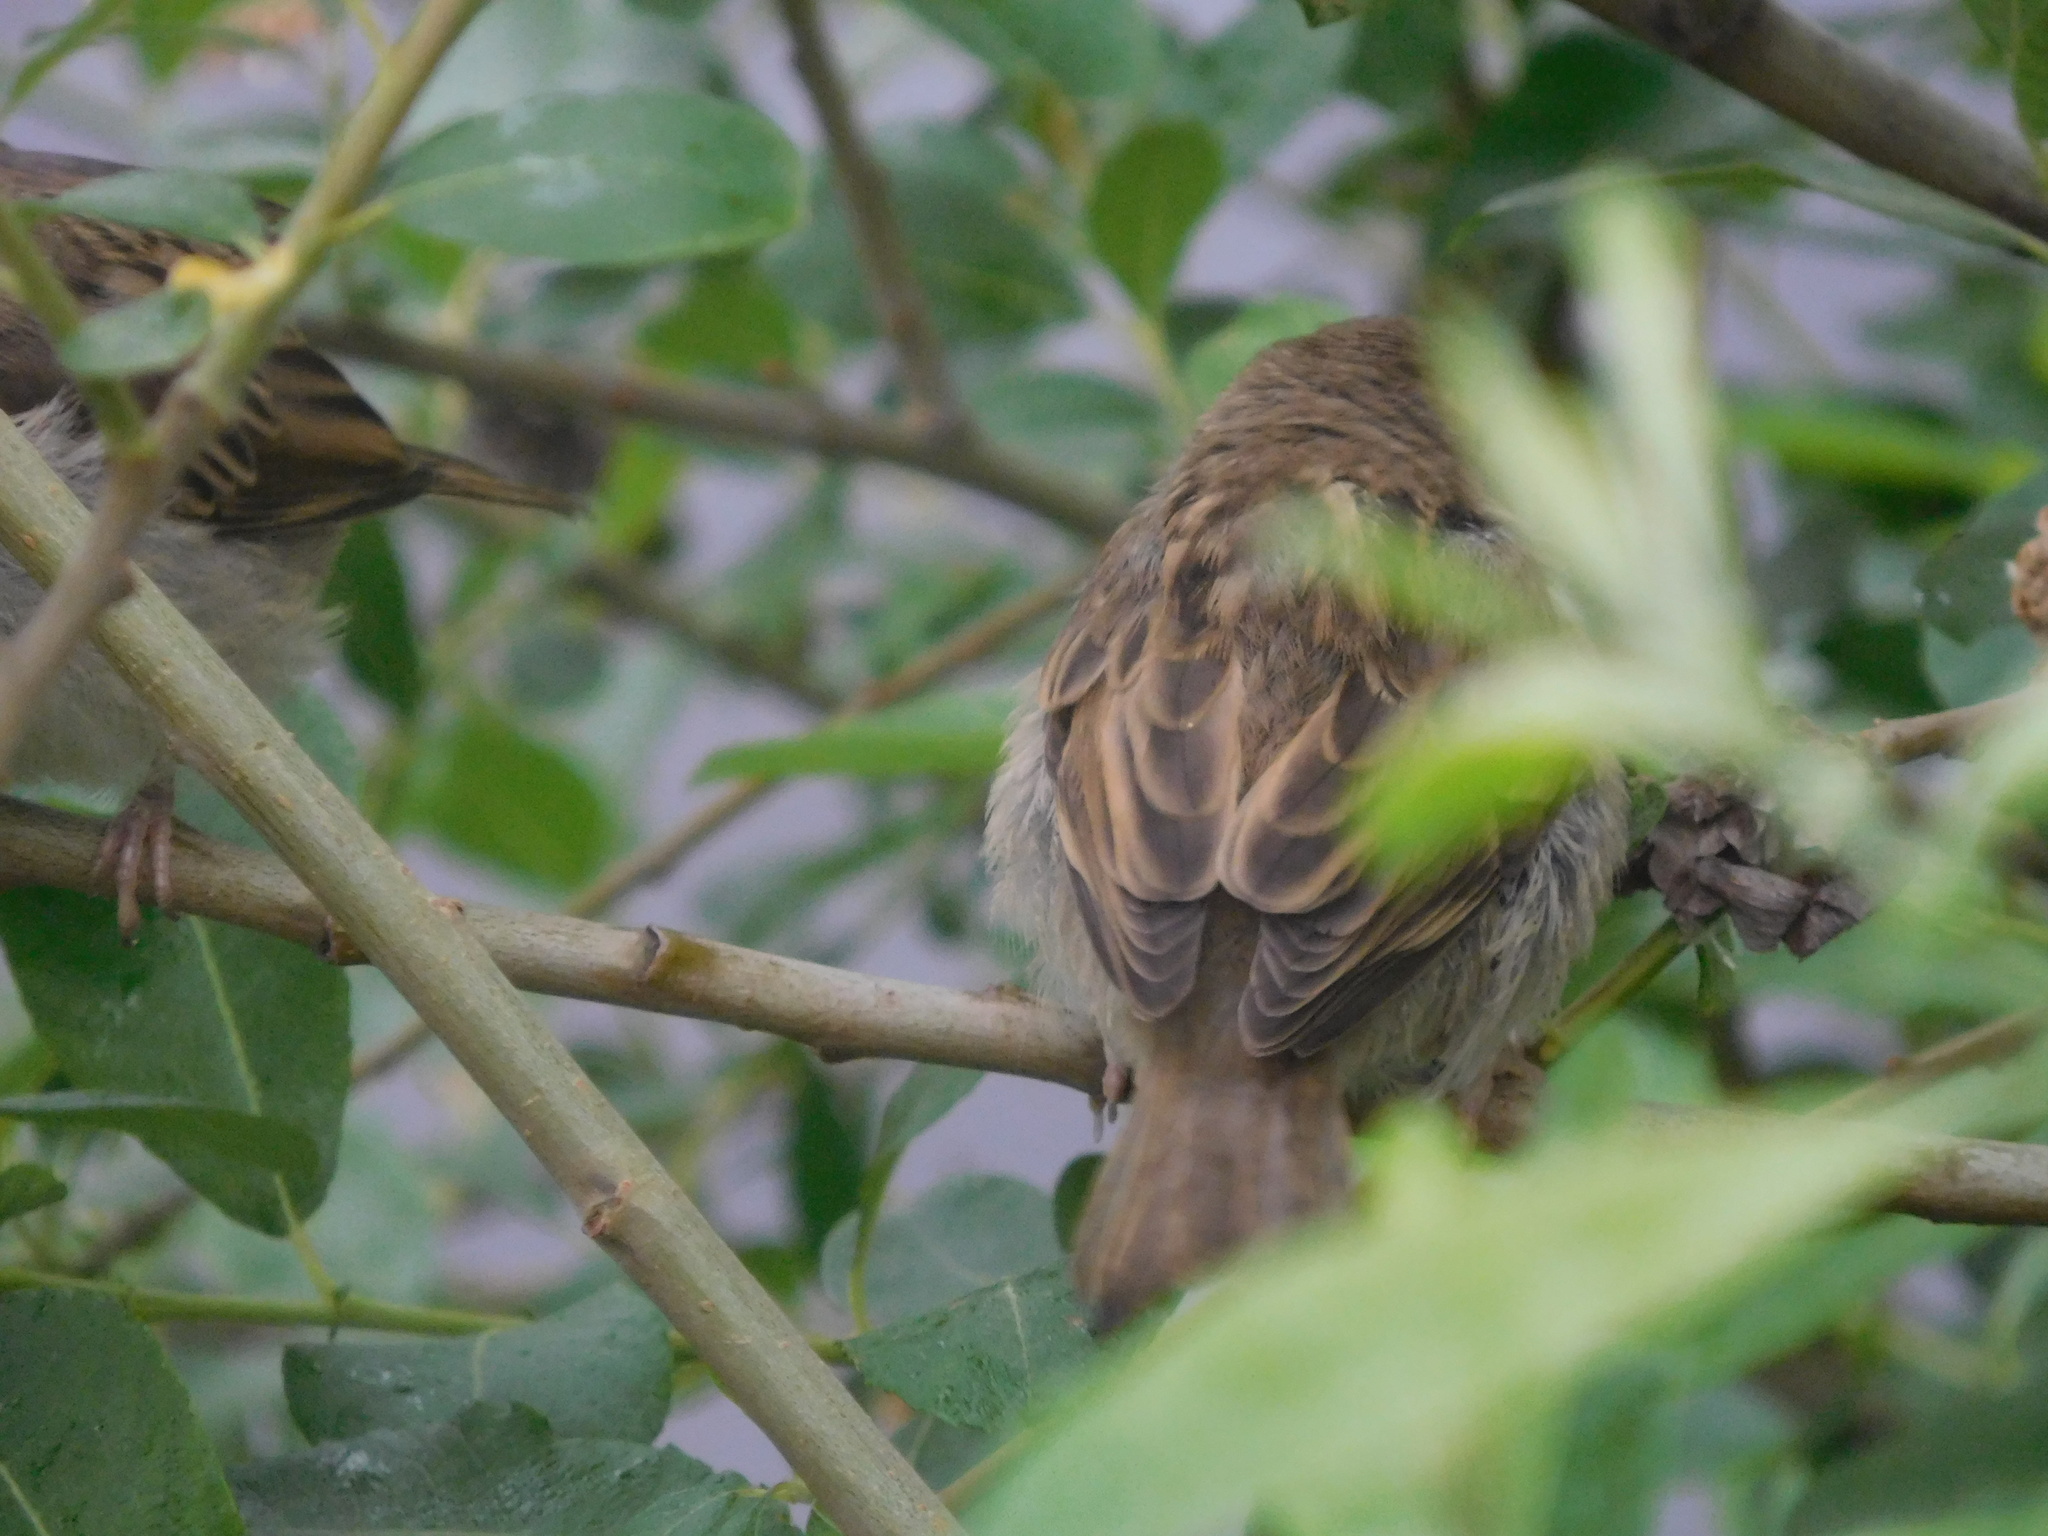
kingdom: Animalia
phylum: Chordata
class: Aves
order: Passeriformes
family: Passeridae
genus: Passer
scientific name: Passer domesticus
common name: House sparrow
